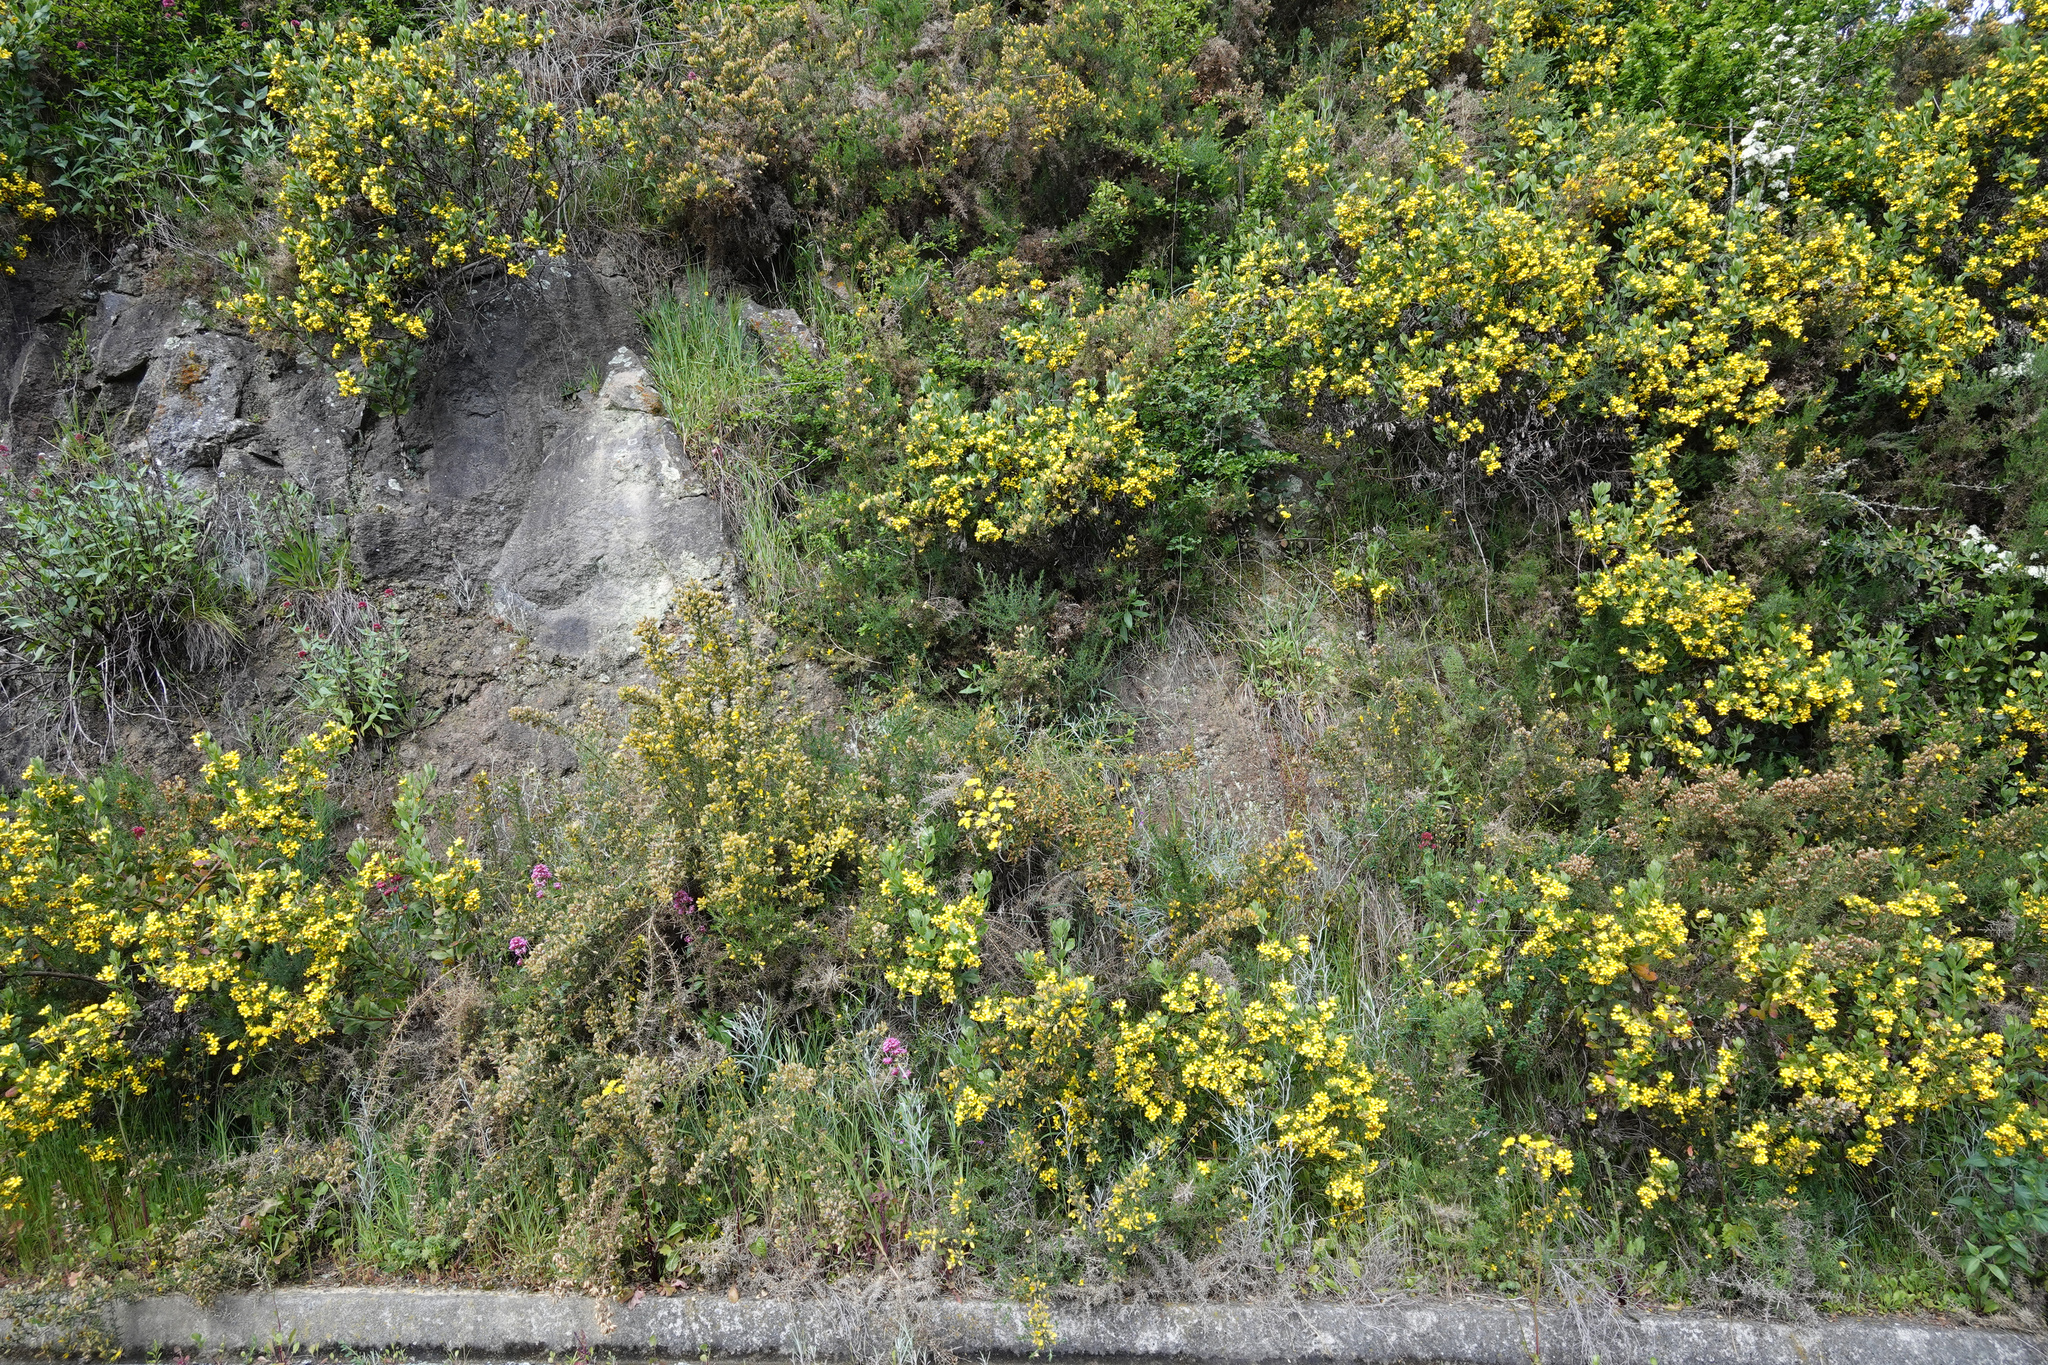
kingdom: Plantae
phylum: Tracheophyta
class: Magnoliopsida
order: Asterales
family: Asteraceae
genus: Osteospermum
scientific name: Osteospermum moniliferum
